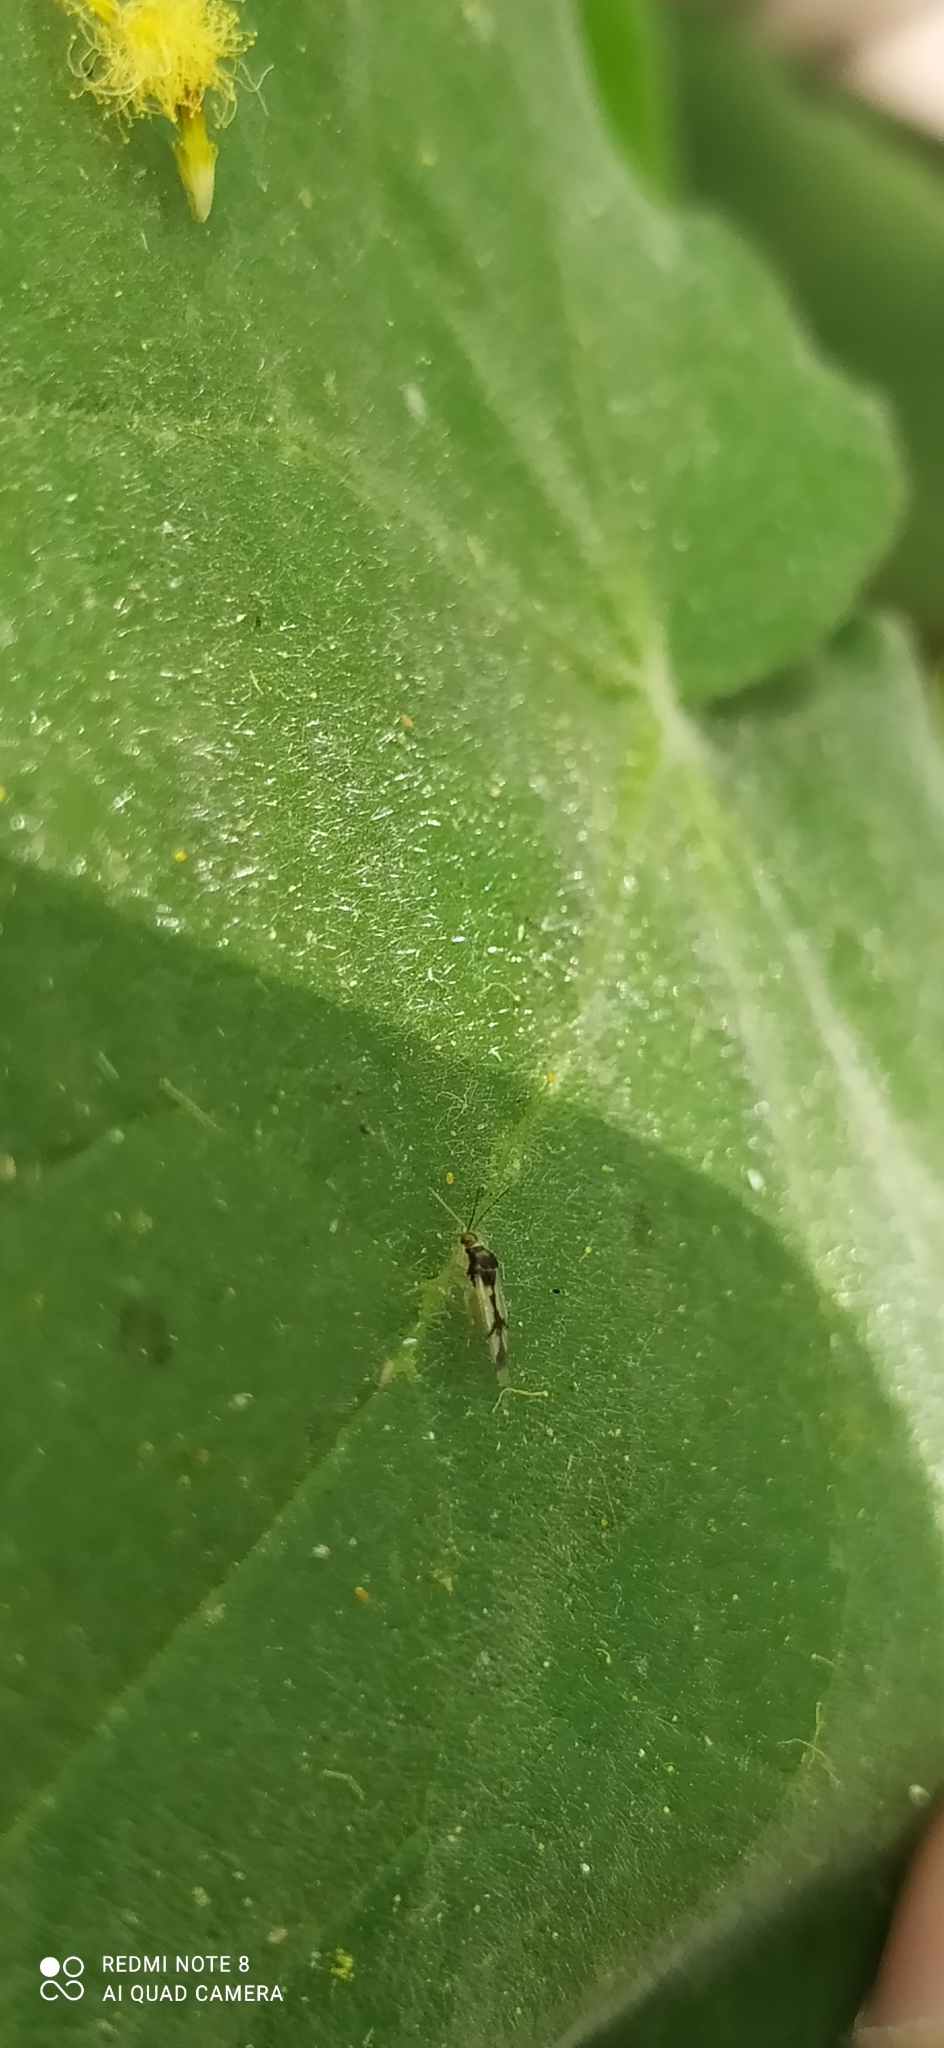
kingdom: Animalia
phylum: Arthropoda
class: Insecta
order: Hemiptera
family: Miridae
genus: Hyaliodocoris
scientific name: Hyaliodocoris insignis
